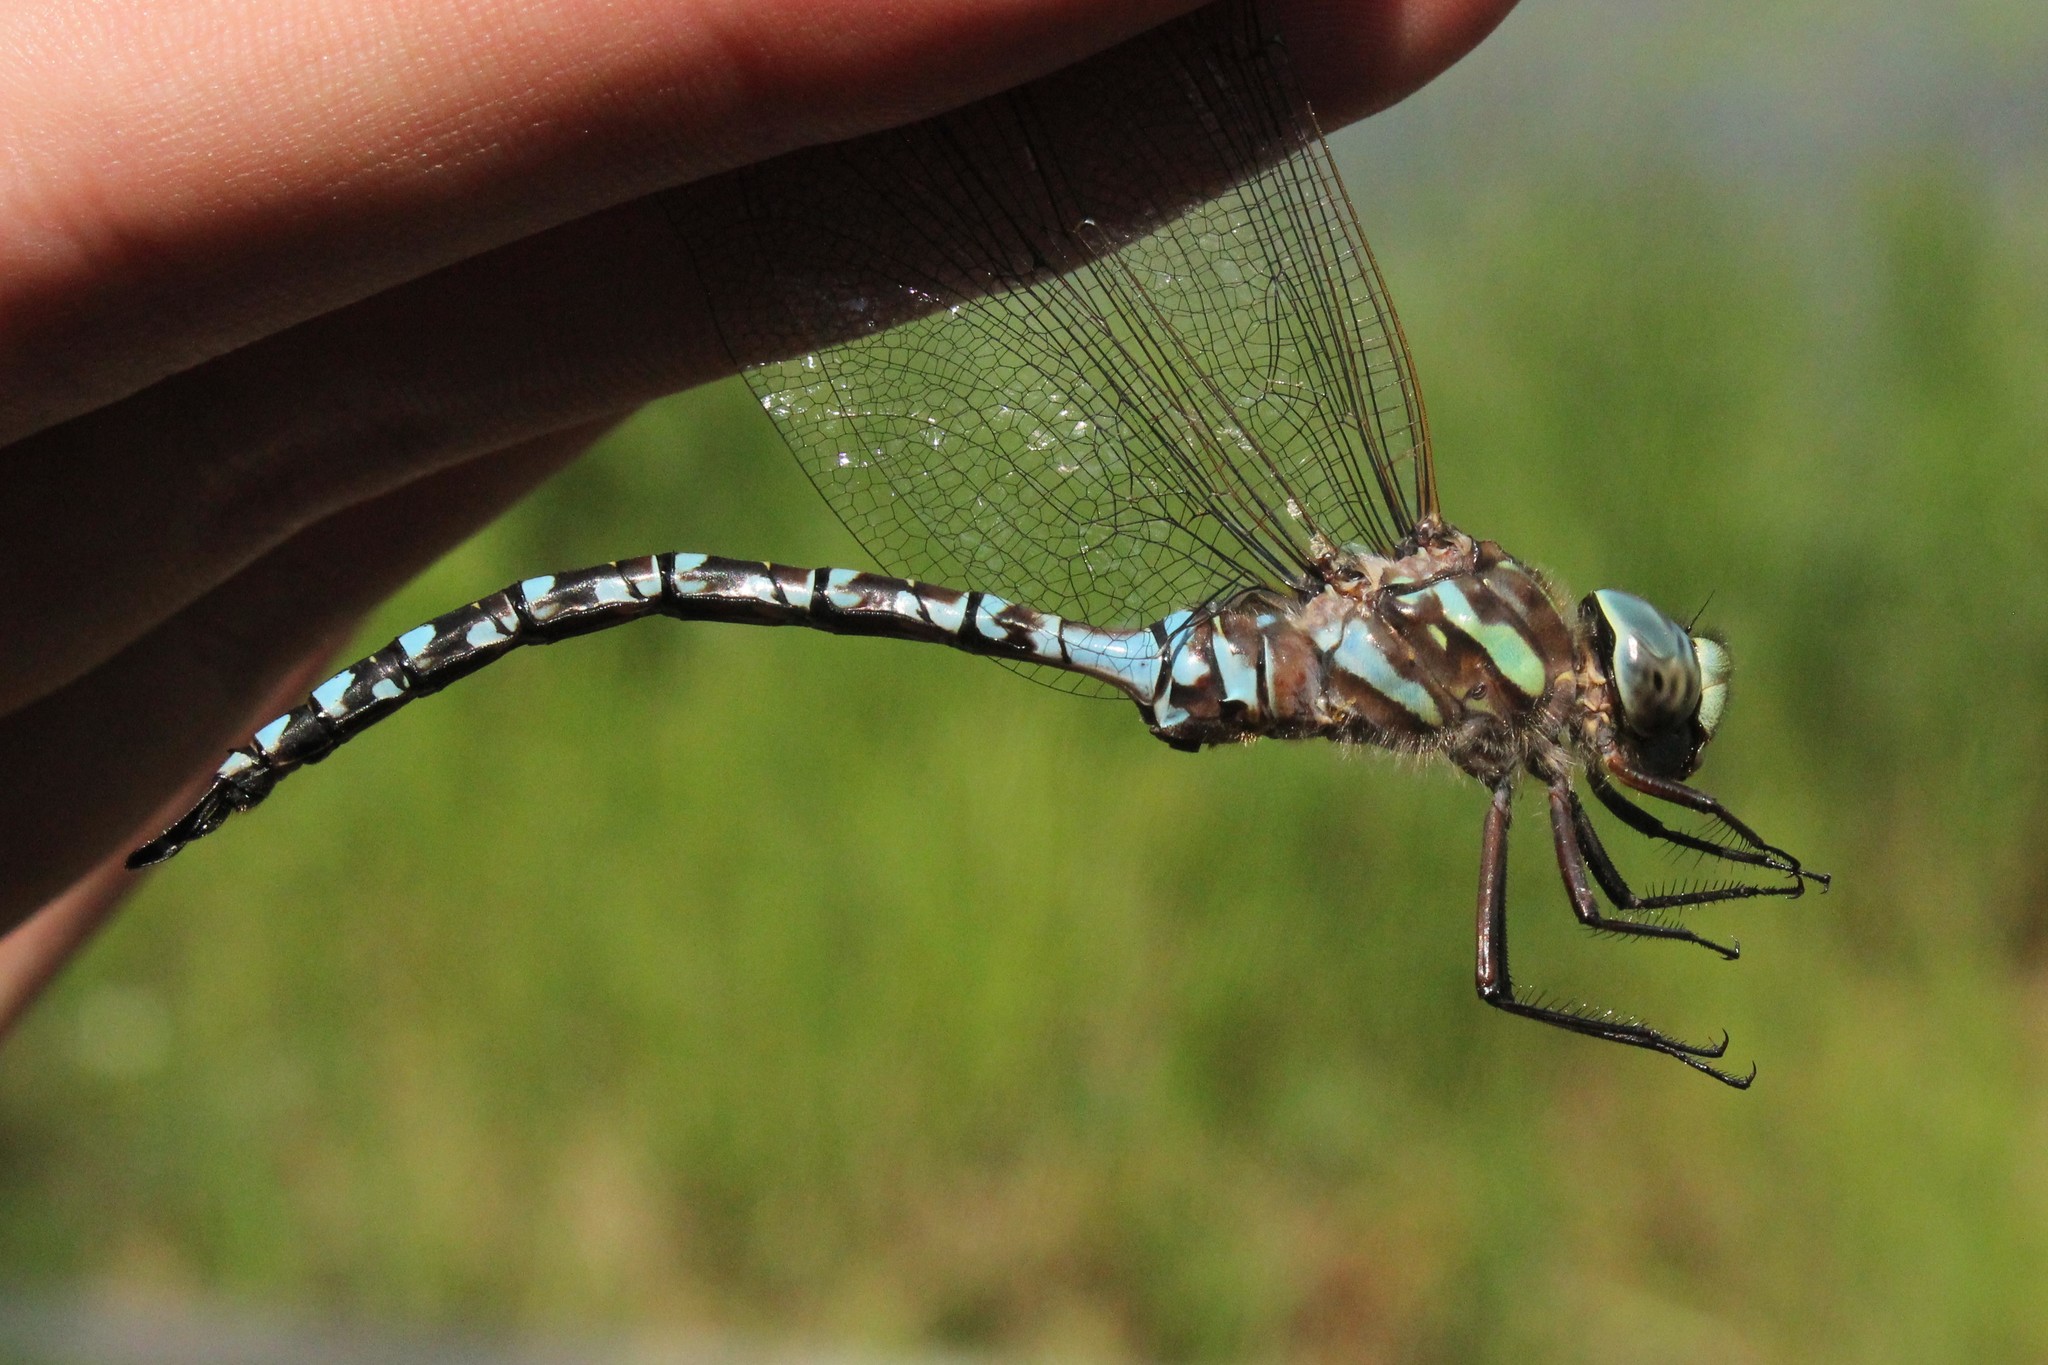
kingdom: Animalia
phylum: Arthropoda
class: Insecta
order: Odonata
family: Aeshnidae
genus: Aeshna
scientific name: Aeshna canadensis
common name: Canada darner
